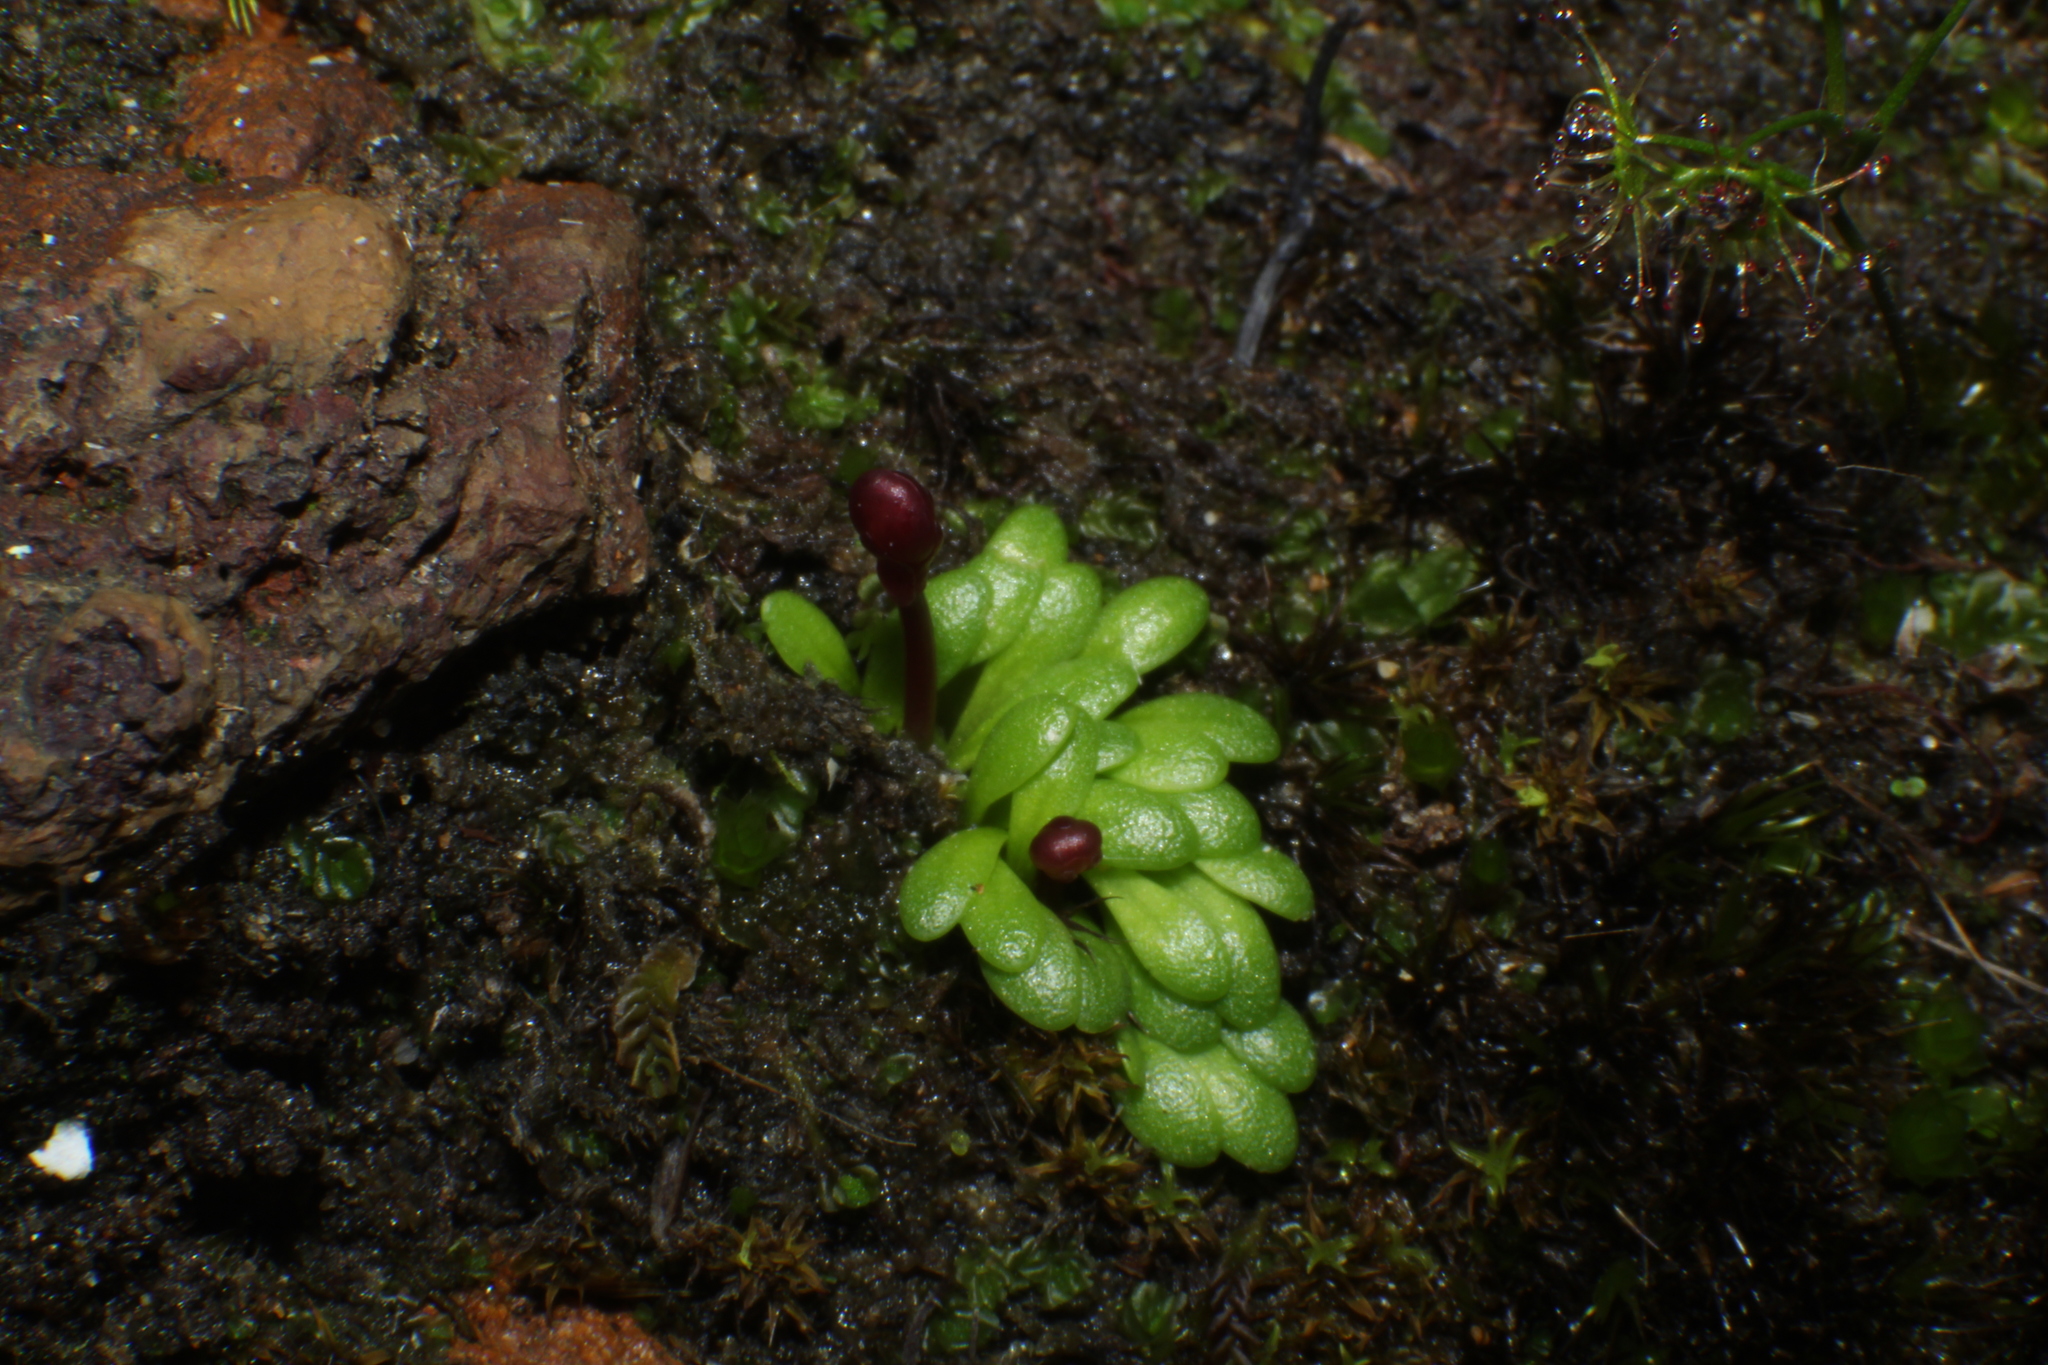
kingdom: Plantae
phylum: Tracheophyta
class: Magnoliopsida
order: Lamiales
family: Lentibulariaceae
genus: Utricularia
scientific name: Utricularia menziesii
